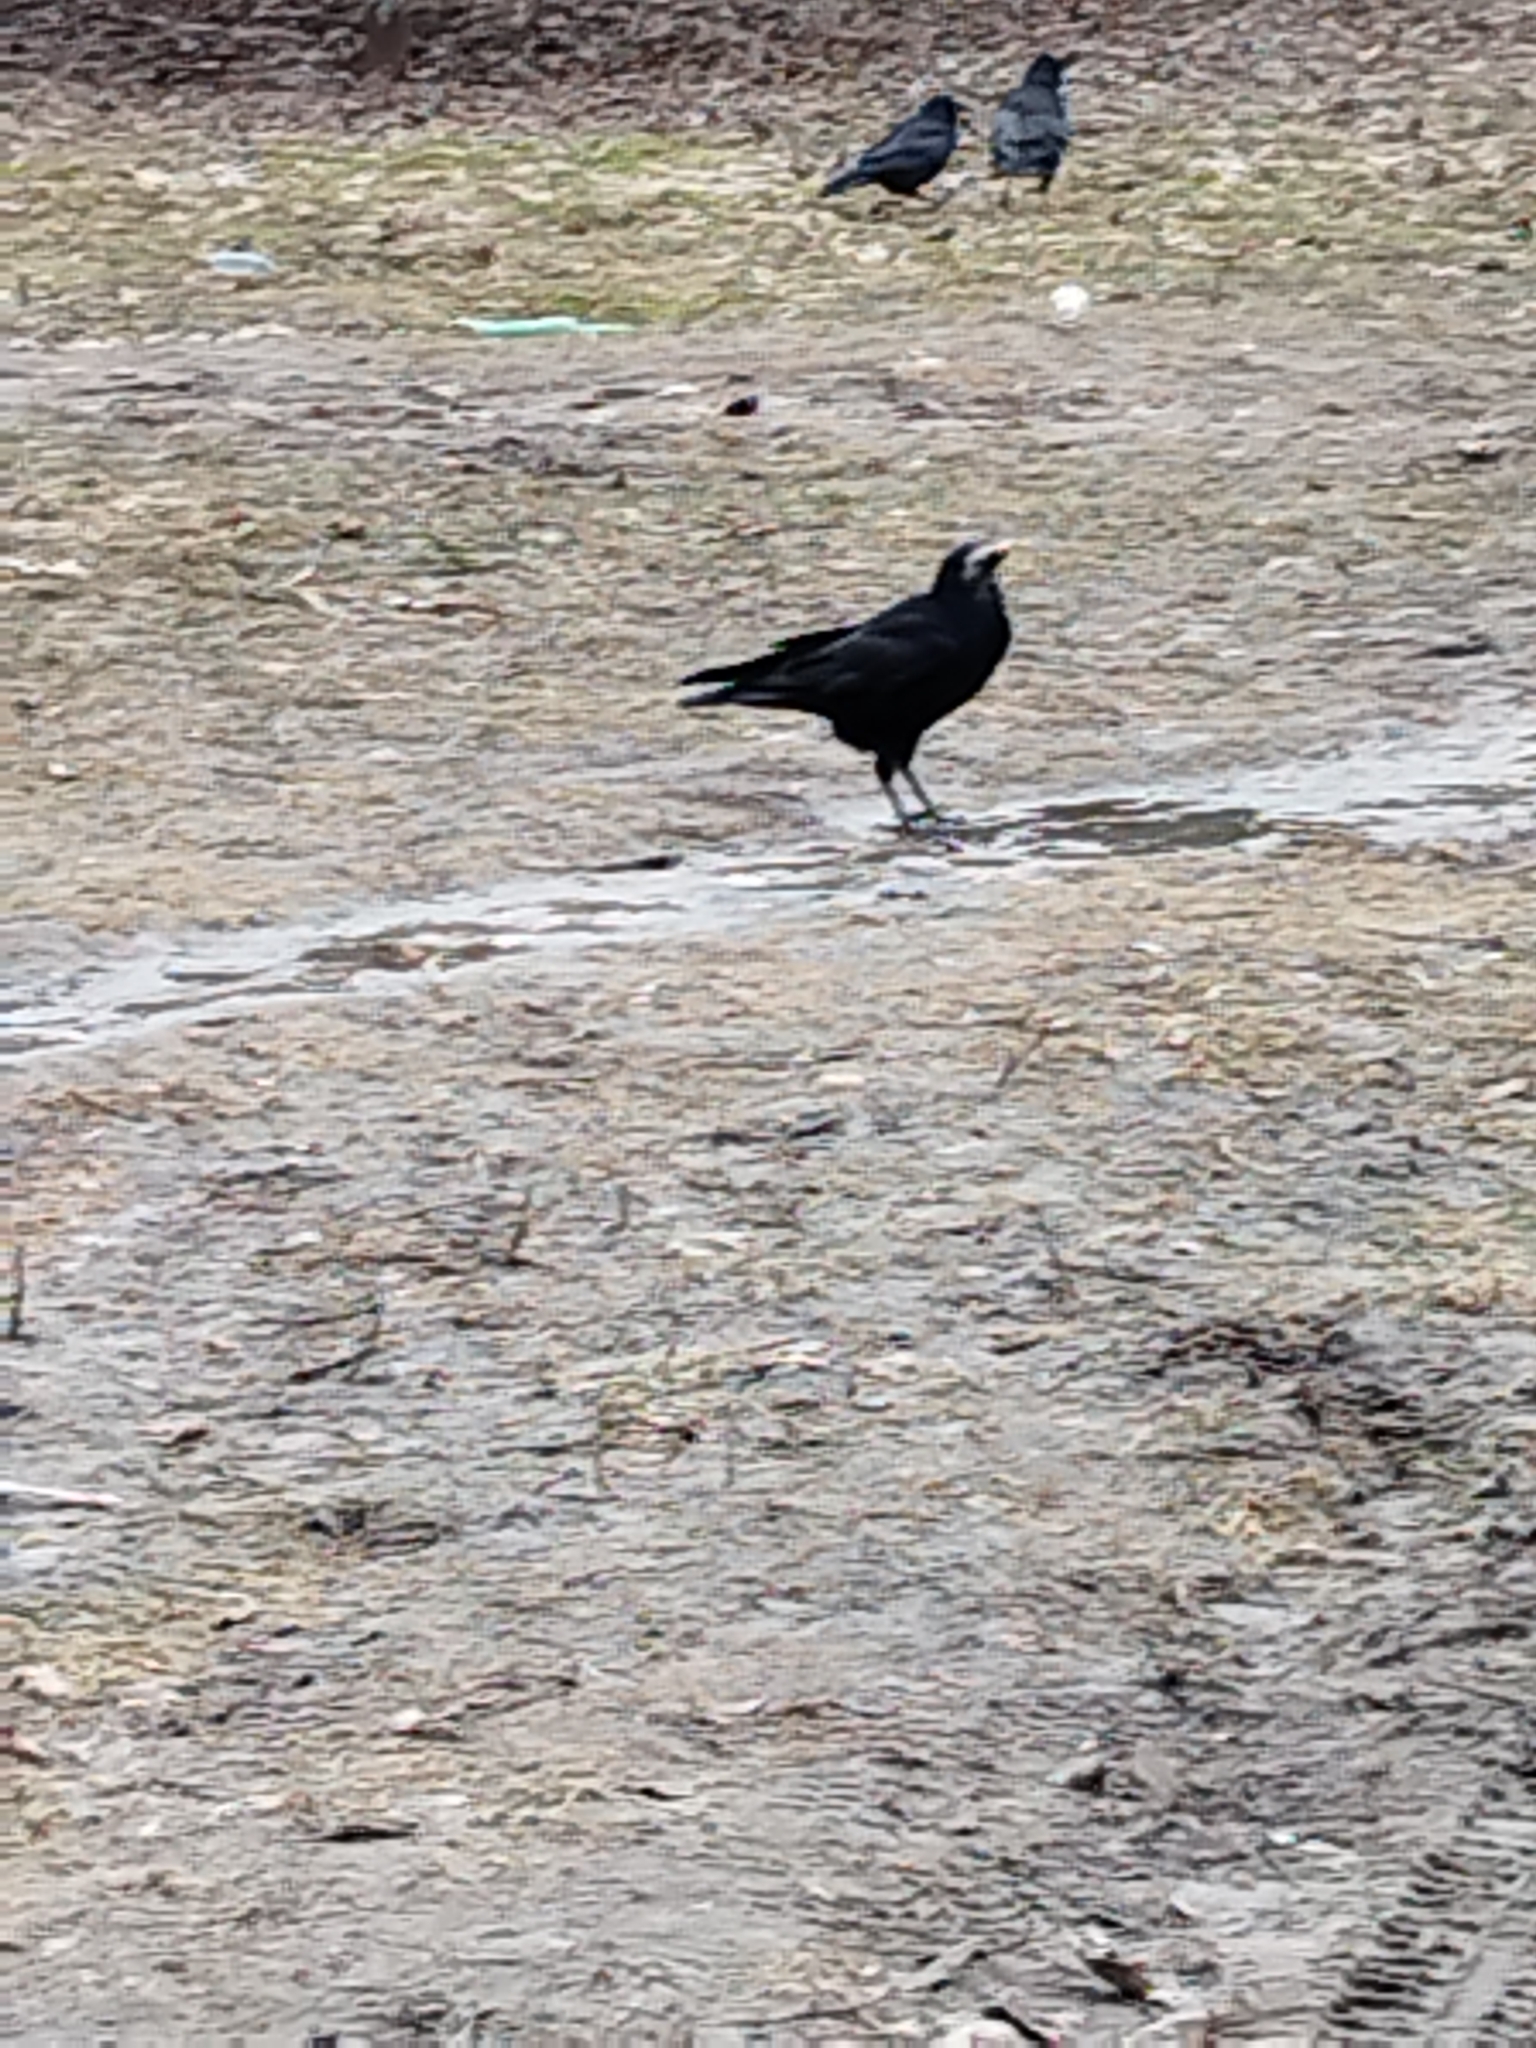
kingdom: Animalia
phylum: Chordata
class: Aves
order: Passeriformes
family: Corvidae
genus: Corvus
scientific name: Corvus frugilegus
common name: Rook
